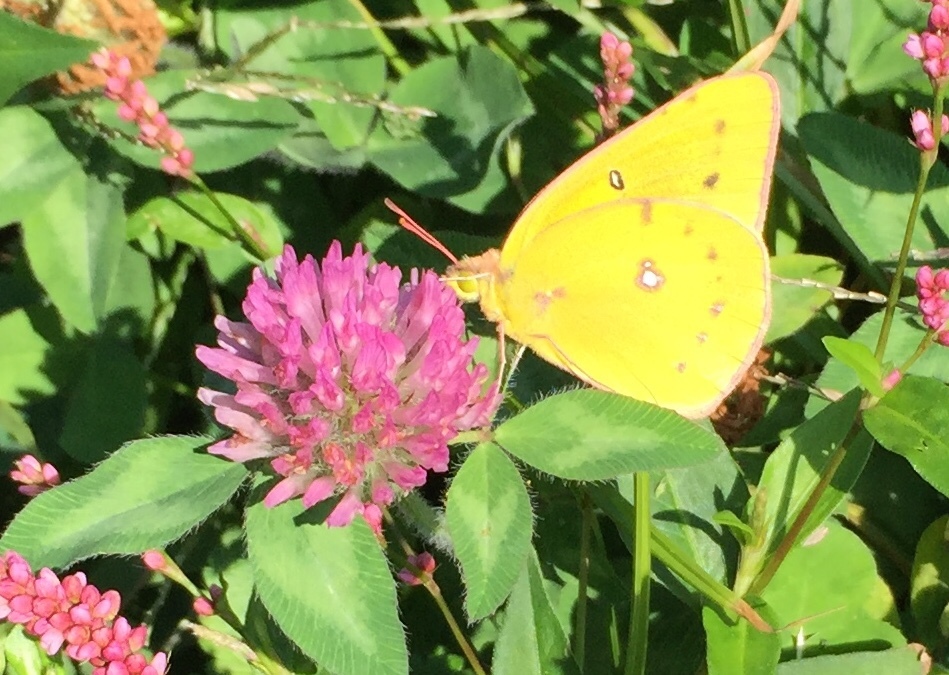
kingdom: Animalia
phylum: Arthropoda
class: Insecta
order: Lepidoptera
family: Pieridae
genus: Colias
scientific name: Colias eurytheme
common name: Alfalfa butterfly
